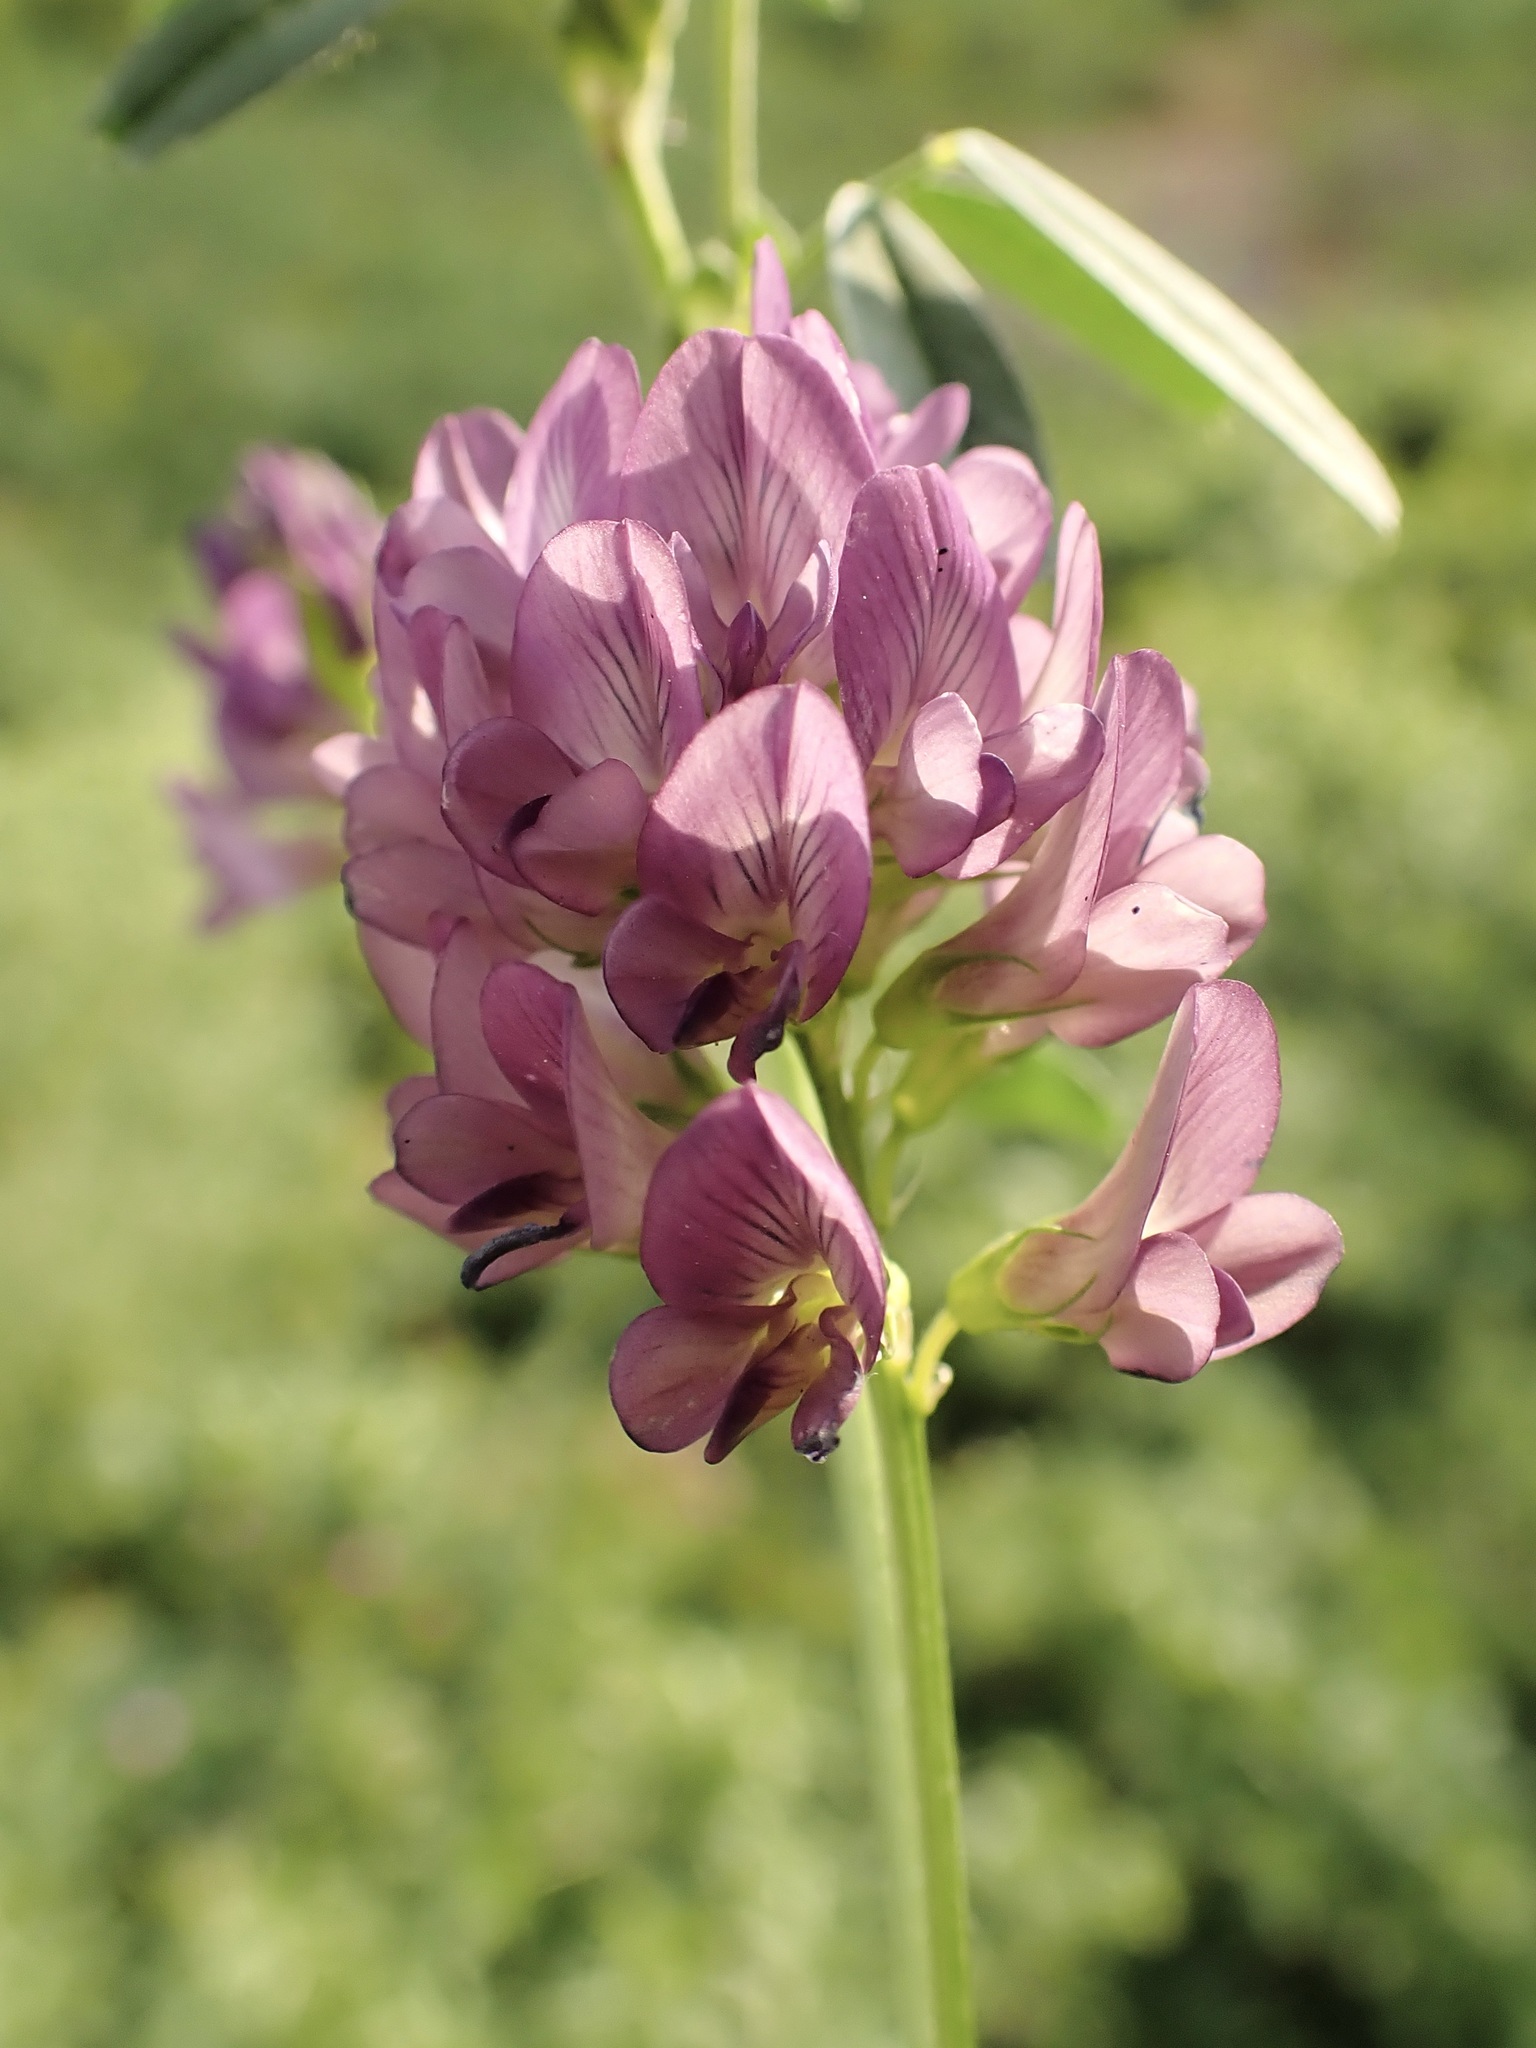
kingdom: Plantae
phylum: Tracheophyta
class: Magnoliopsida
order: Fabales
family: Fabaceae
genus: Medicago
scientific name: Medicago varia
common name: Sand lucerne
